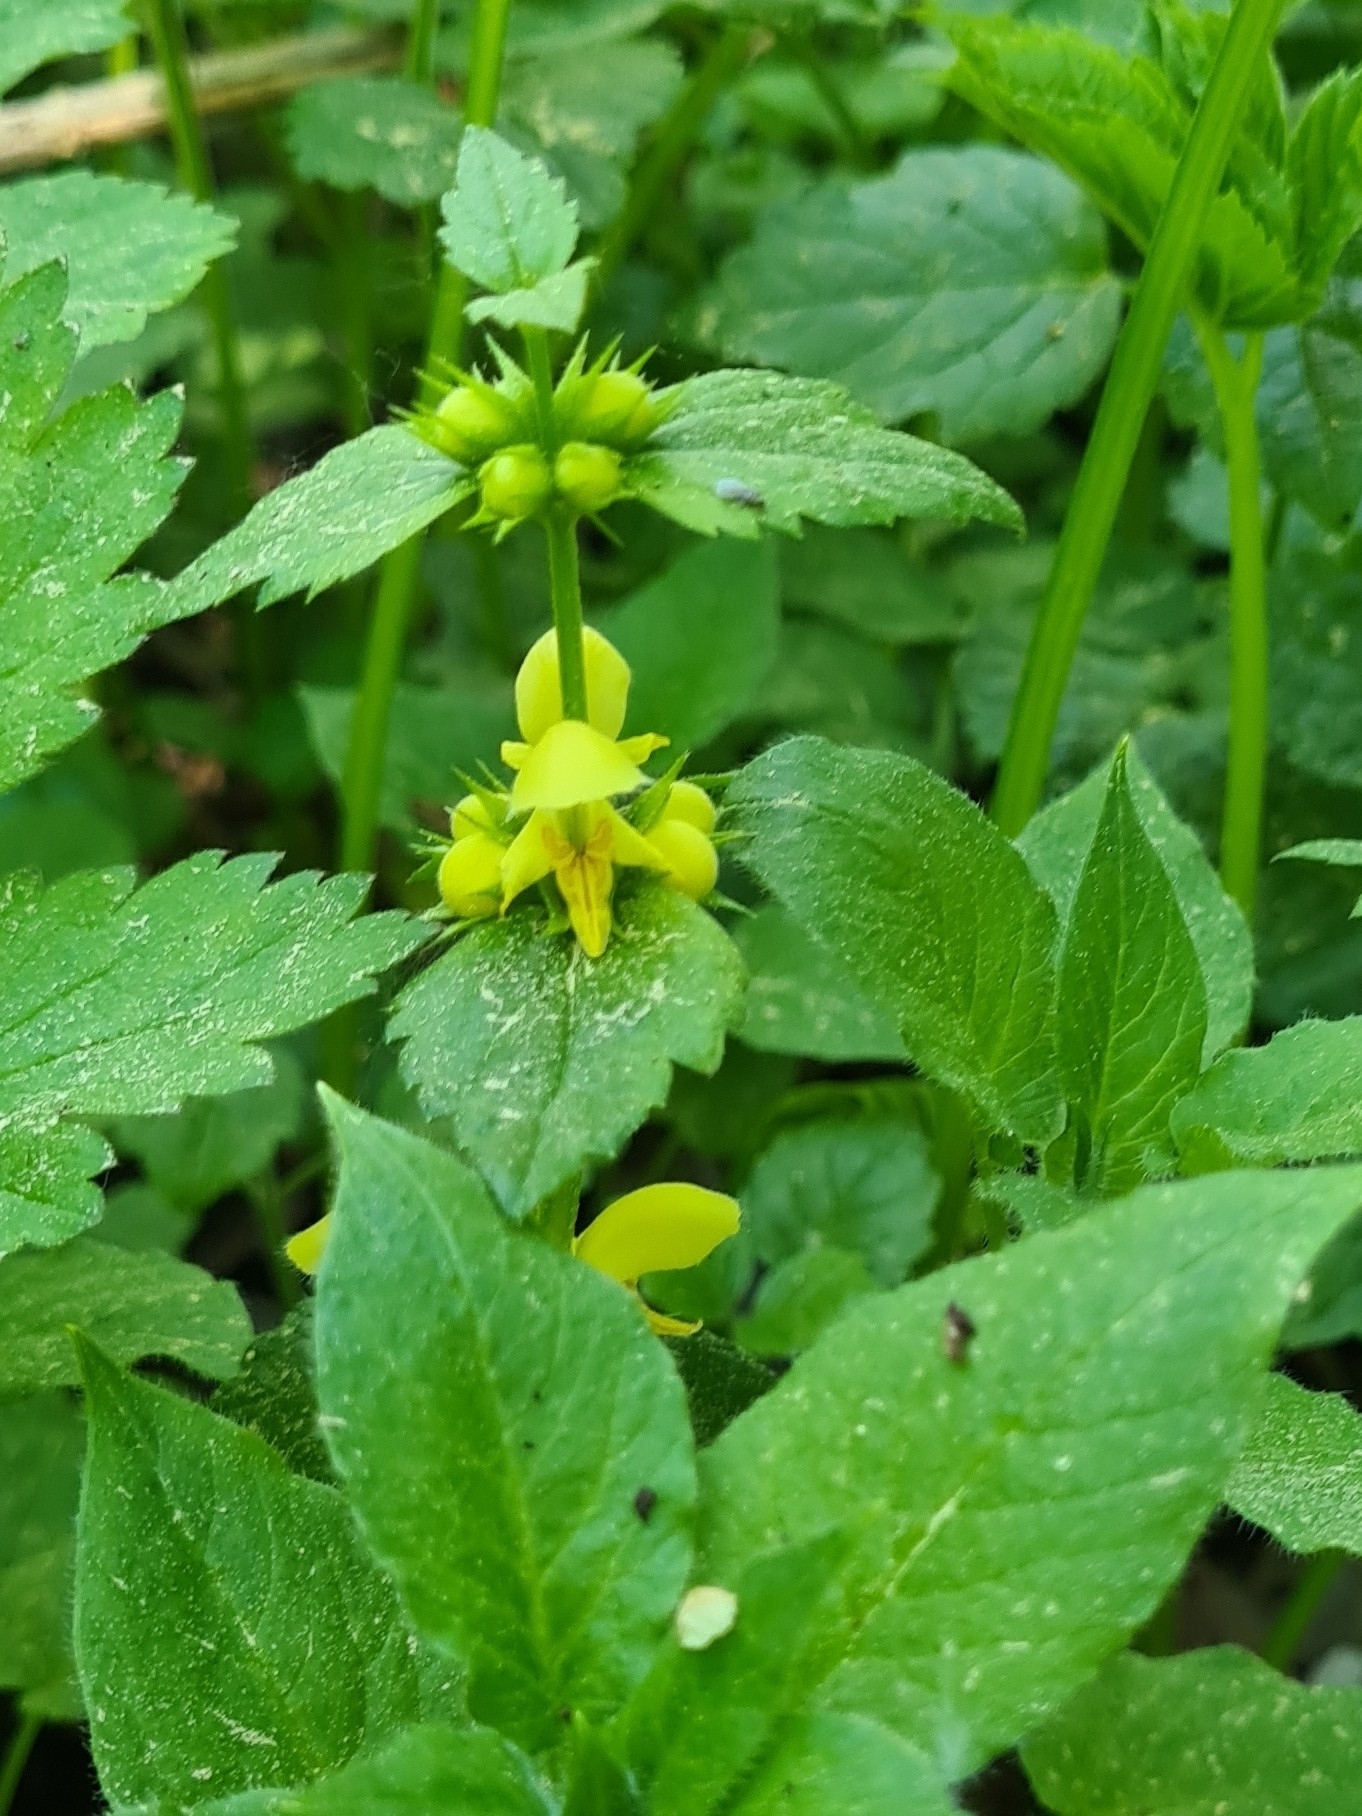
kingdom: Plantae
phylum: Tracheophyta
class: Magnoliopsida
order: Lamiales
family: Lamiaceae
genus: Lamium
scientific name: Lamium galeobdolon
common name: Yellow archangel
